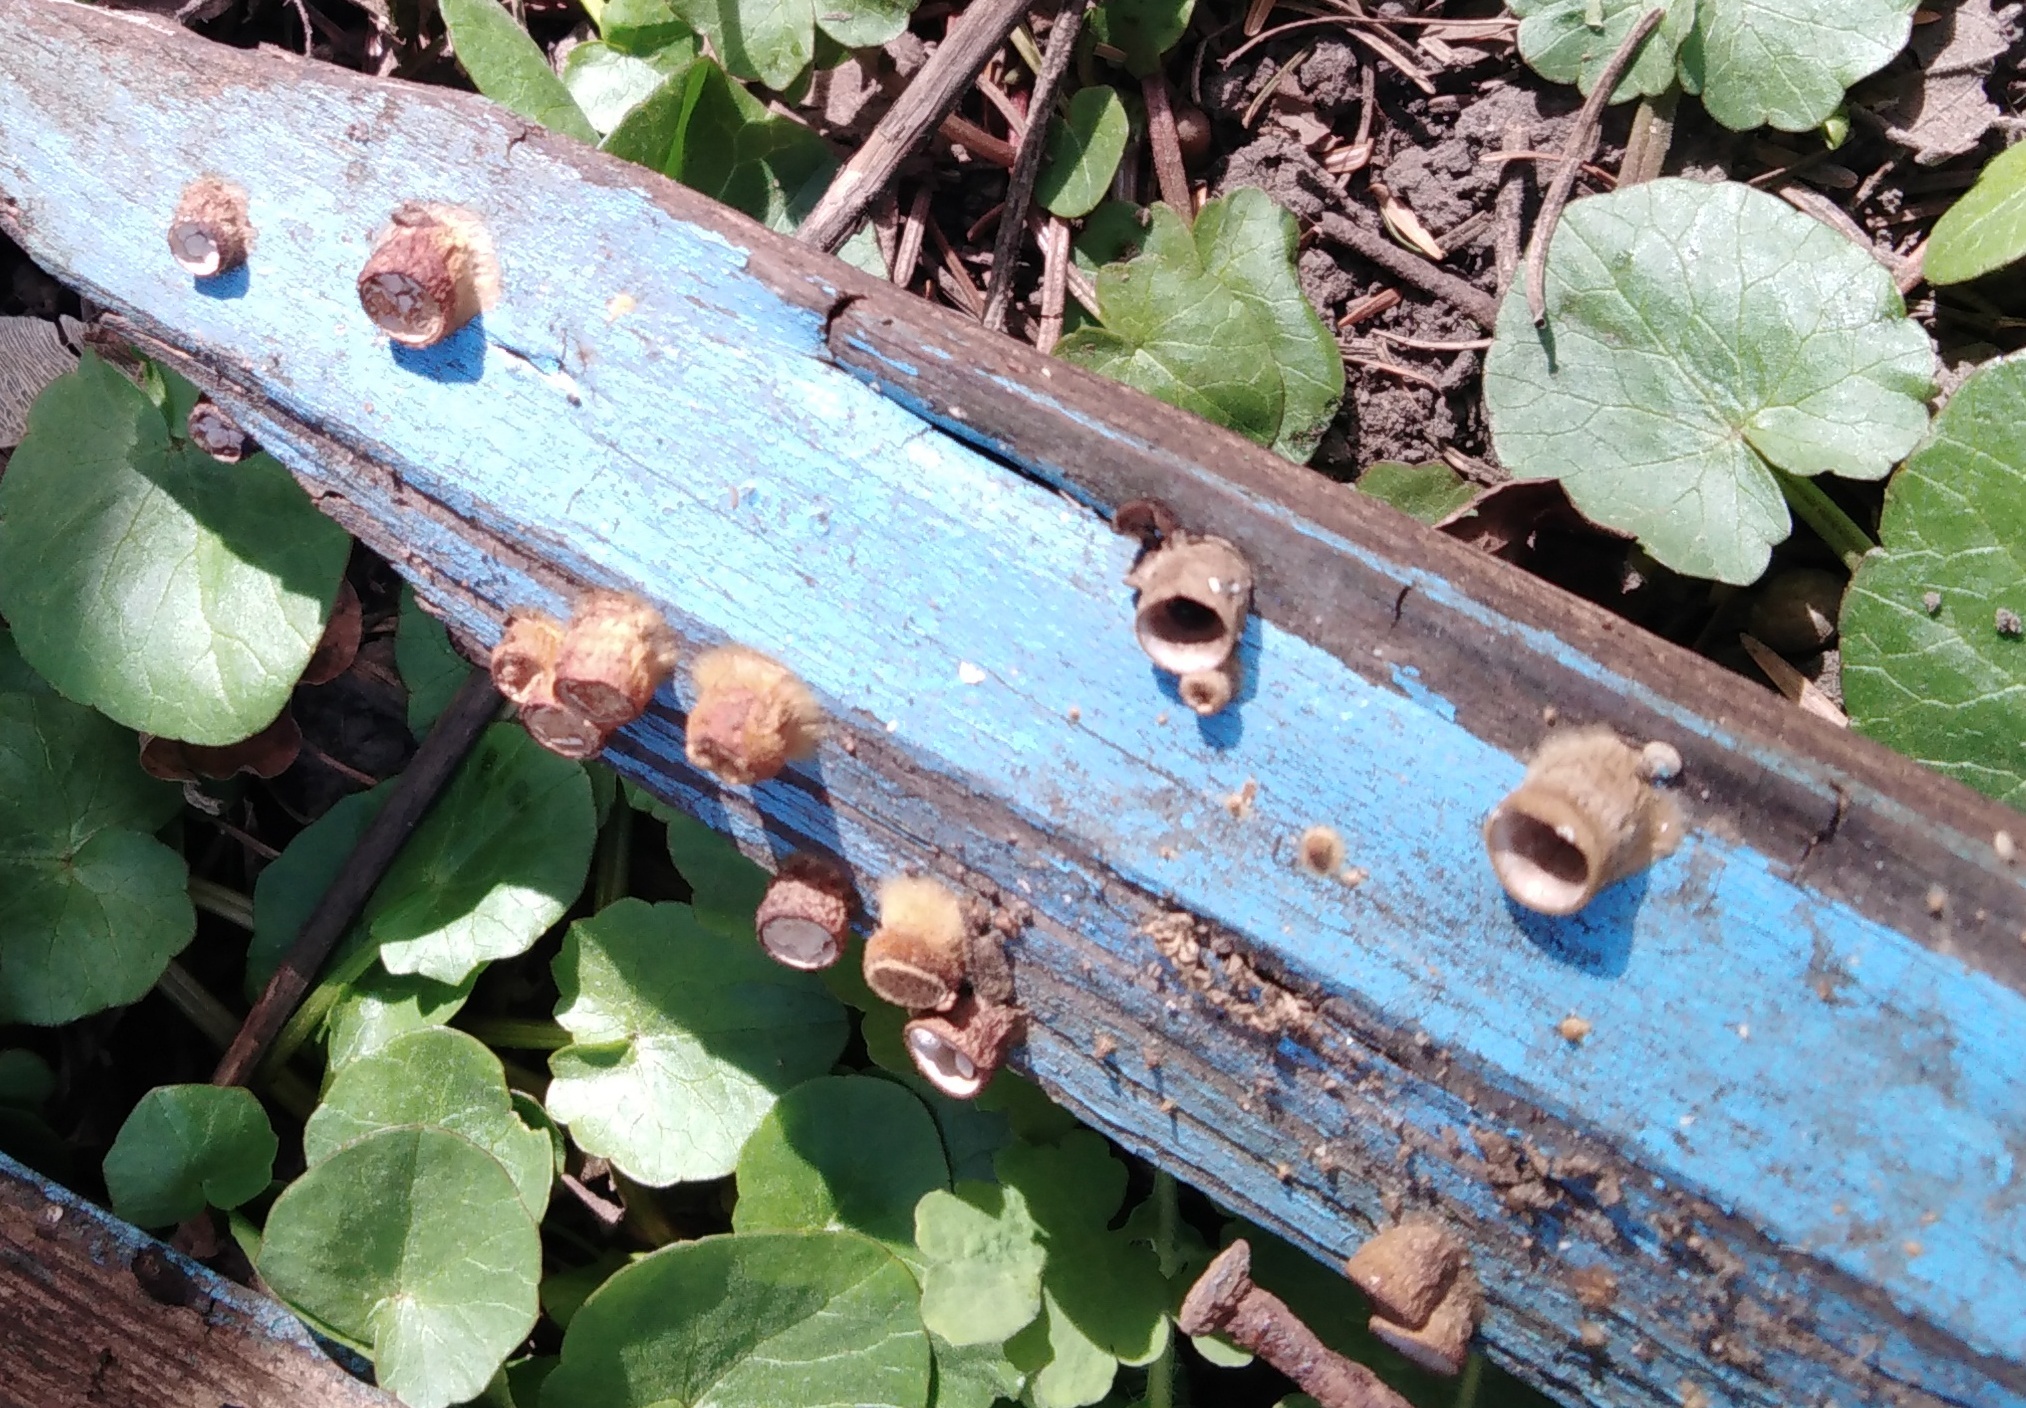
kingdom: Fungi
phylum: Basidiomycota
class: Agaricomycetes
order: Agaricales
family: Nidulariaceae
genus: Crucibulum
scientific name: Crucibulum laeve
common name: Common bird's nest
